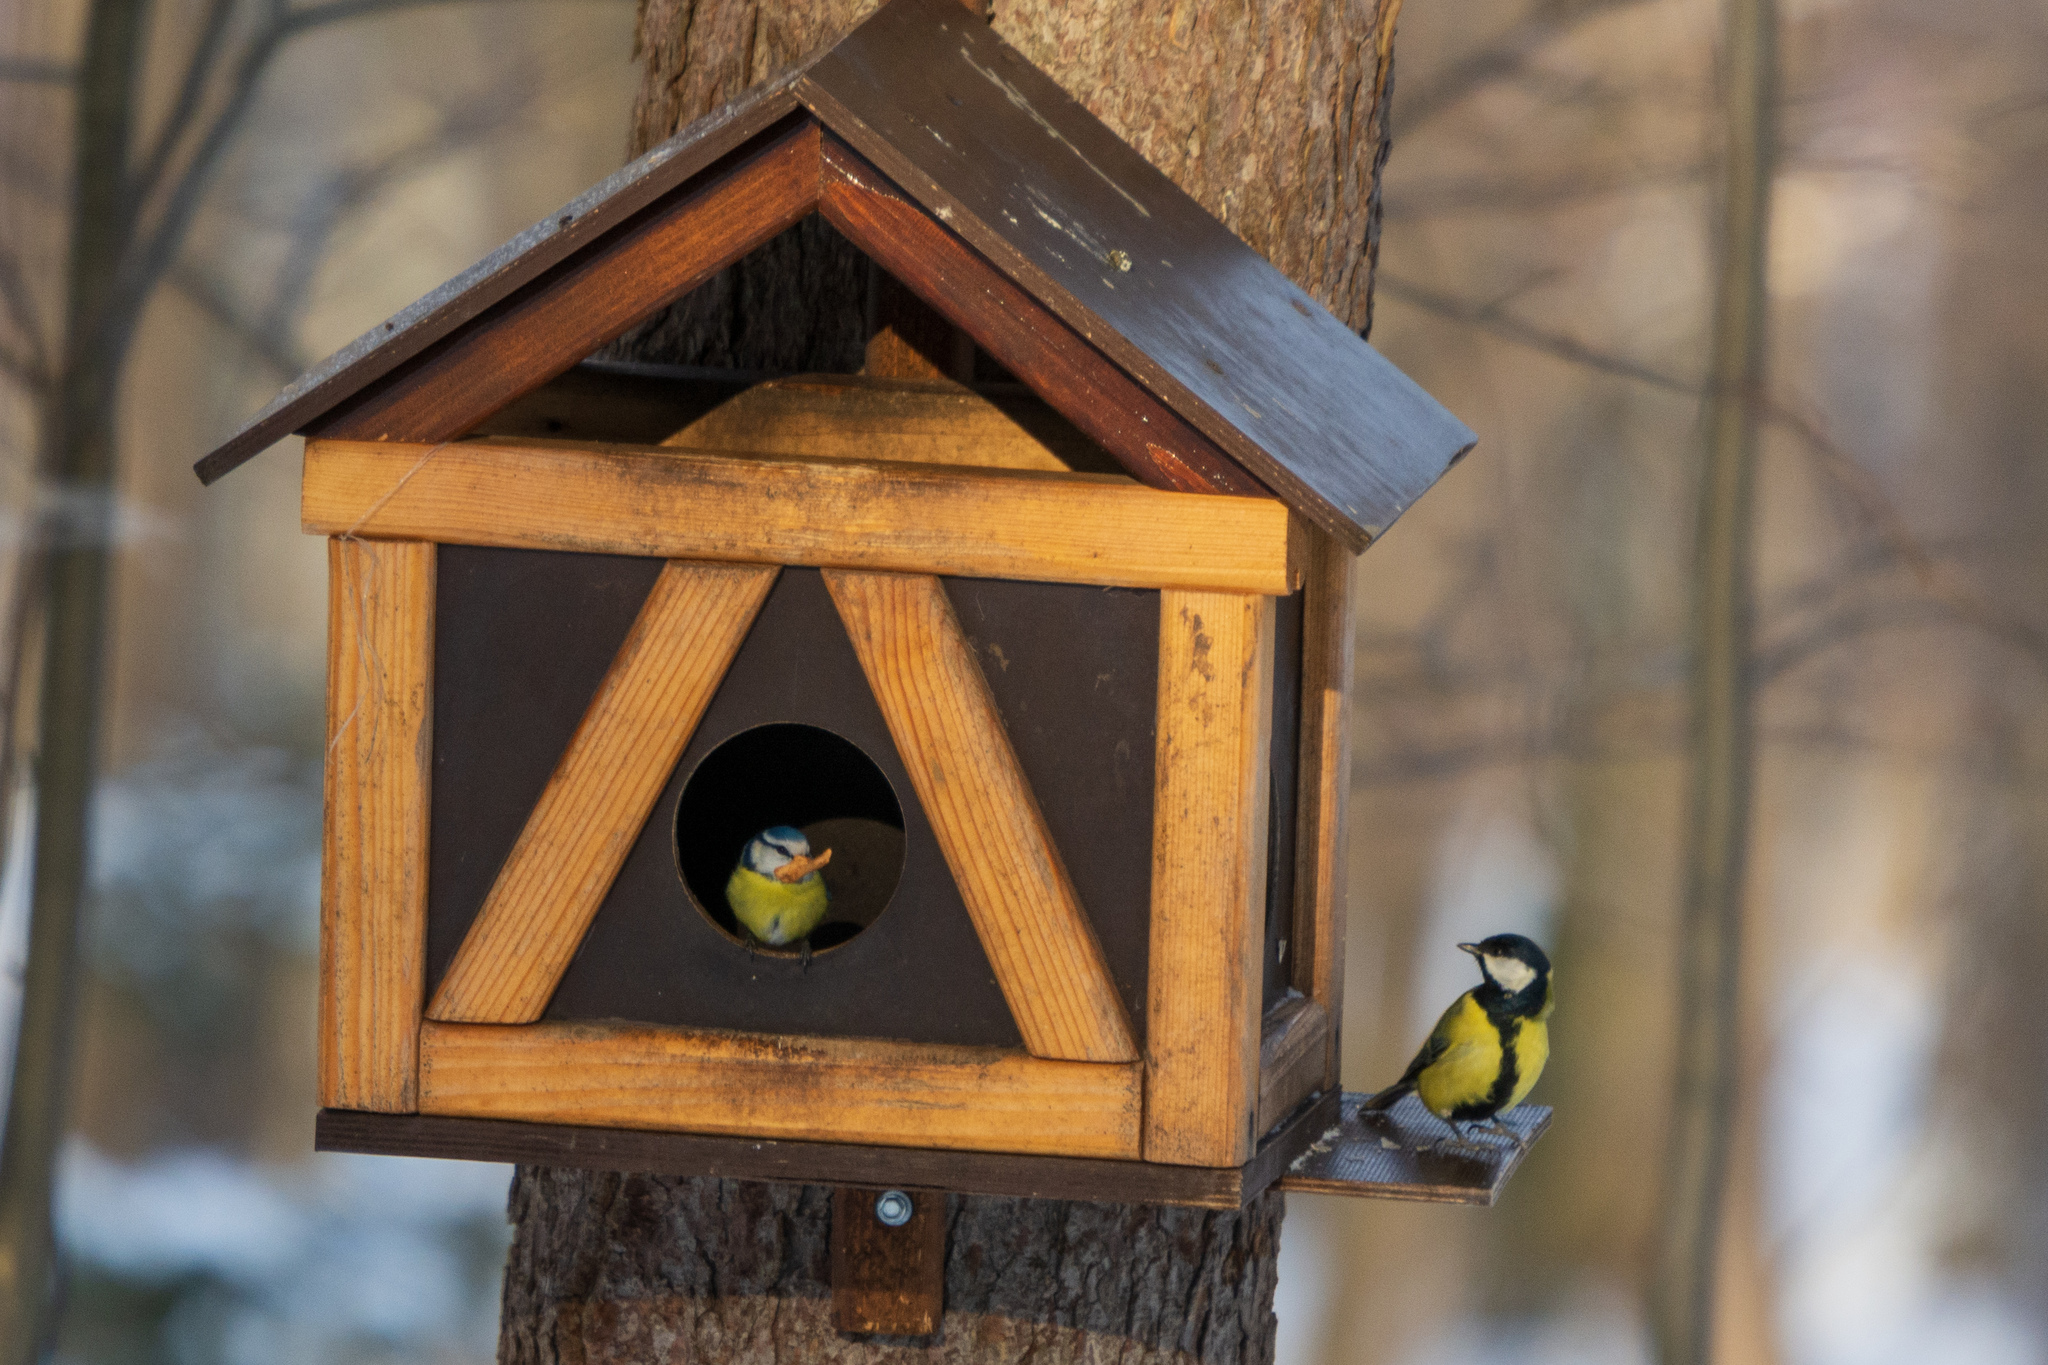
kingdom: Animalia
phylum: Chordata
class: Aves
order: Passeriformes
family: Paridae
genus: Parus
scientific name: Parus major
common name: Great tit
